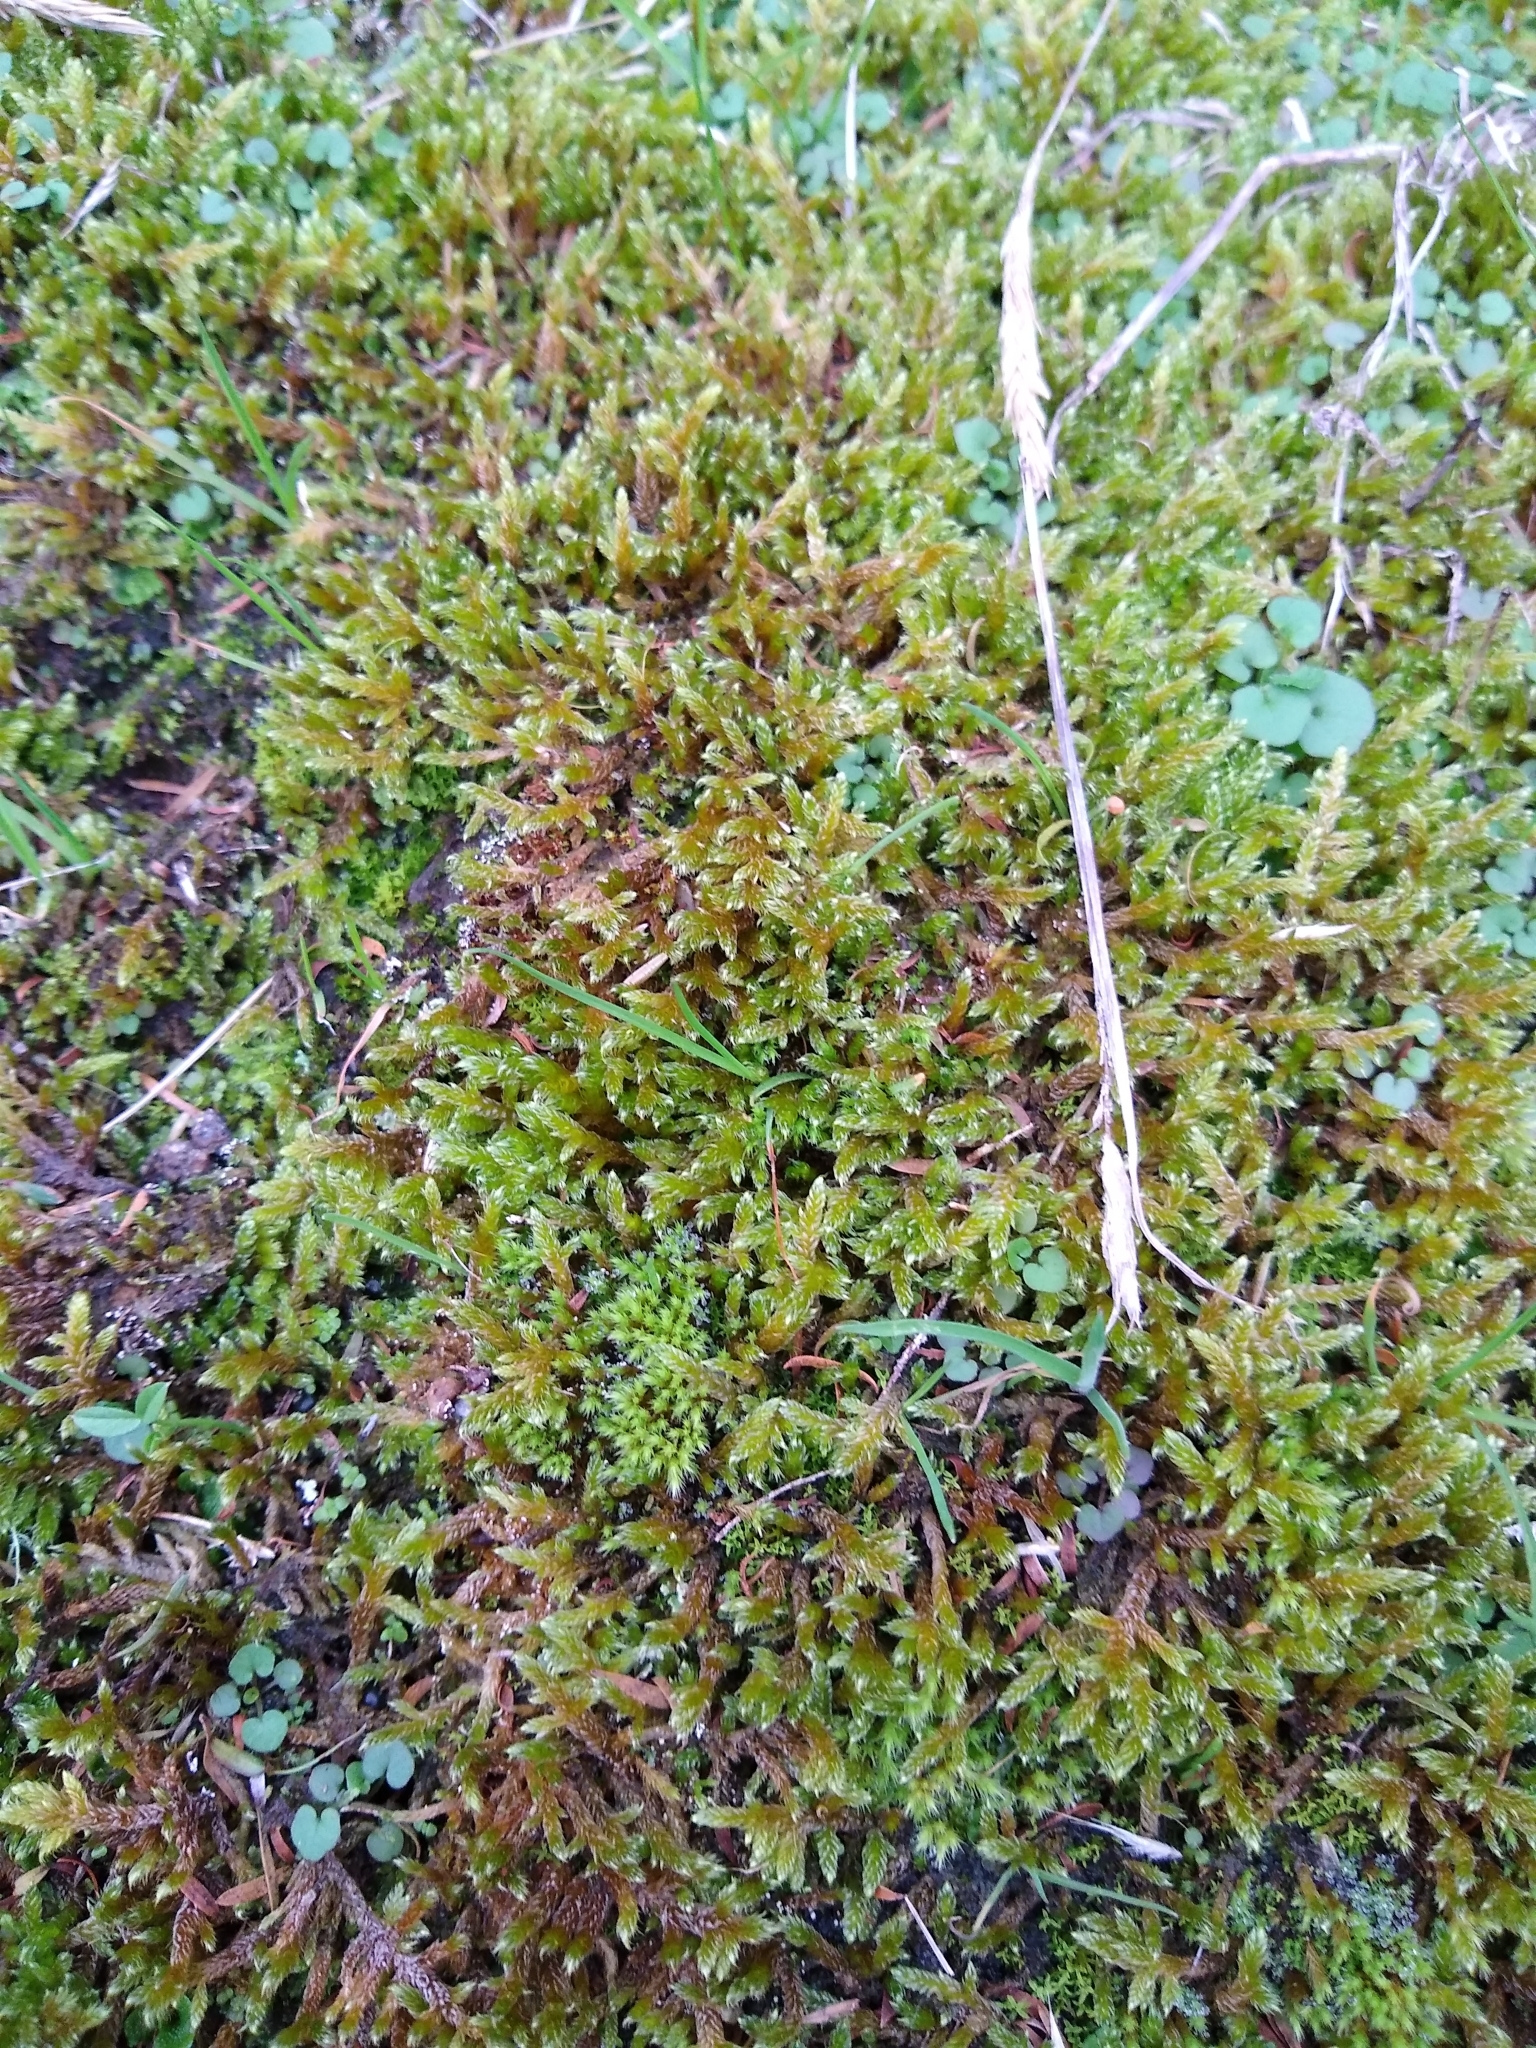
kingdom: Plantae
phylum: Bryophyta
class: Bryopsida
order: Hypnales
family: Hypnaceae
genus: Hypnum
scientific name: Hypnum cupressiforme
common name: Cypress-leaved plait-moss
